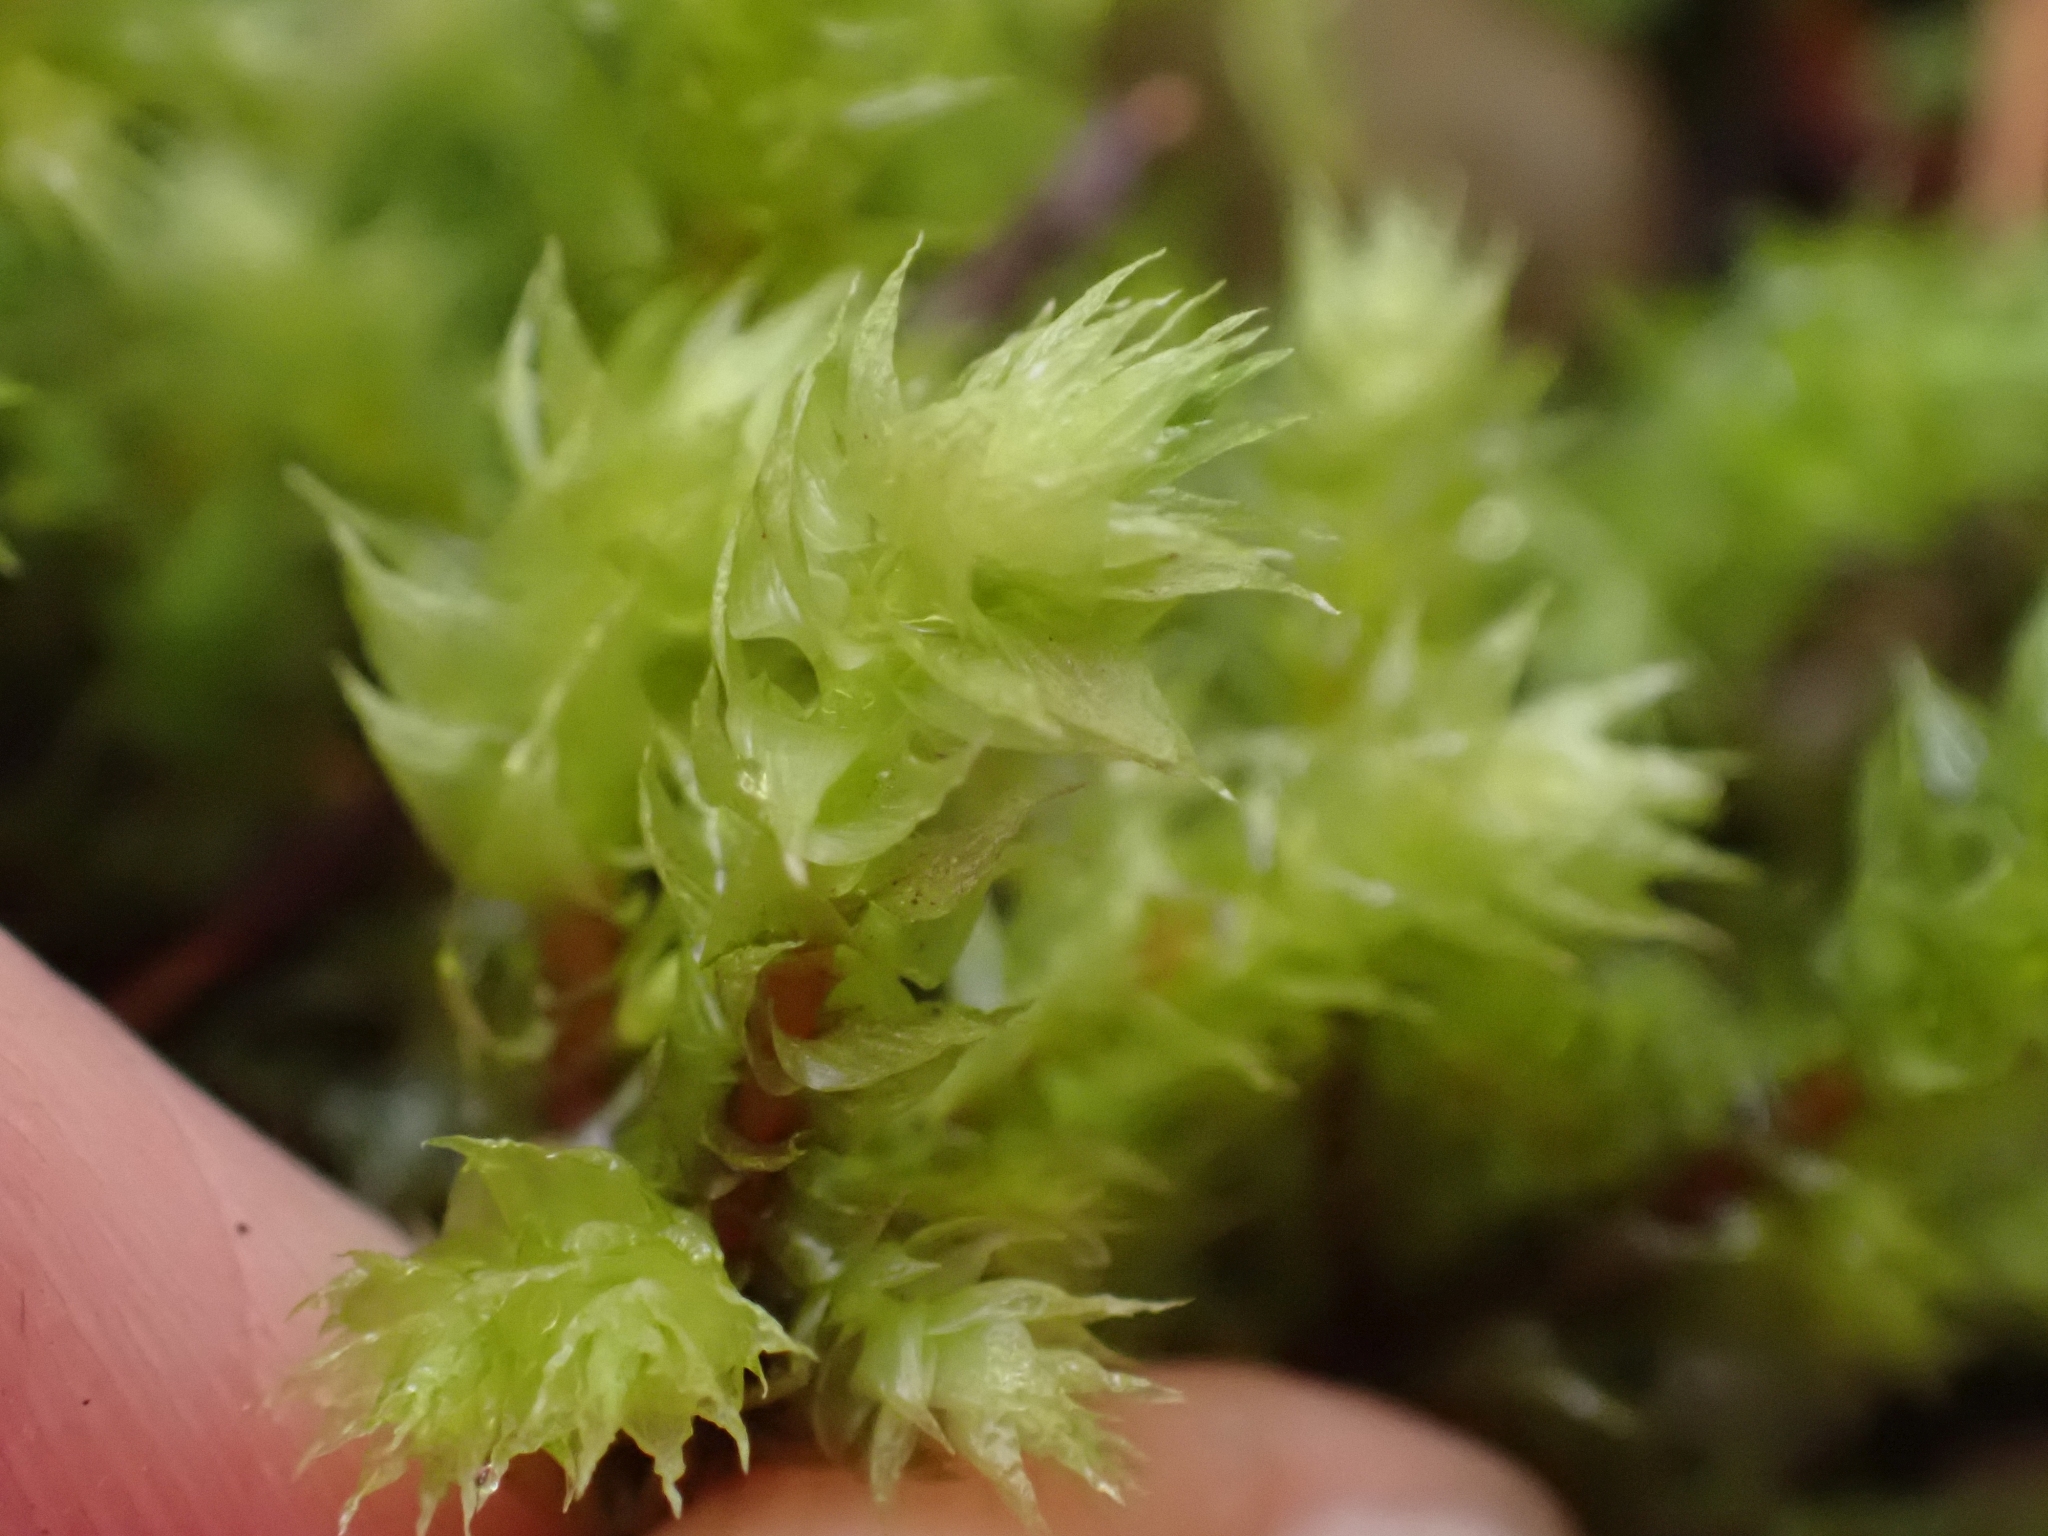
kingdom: Plantae
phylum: Bryophyta
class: Bryopsida
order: Hypnales
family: Hylocomiaceae
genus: Hylocomiadelphus
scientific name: Hylocomiadelphus triquetrus
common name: Rough goose neck moss
